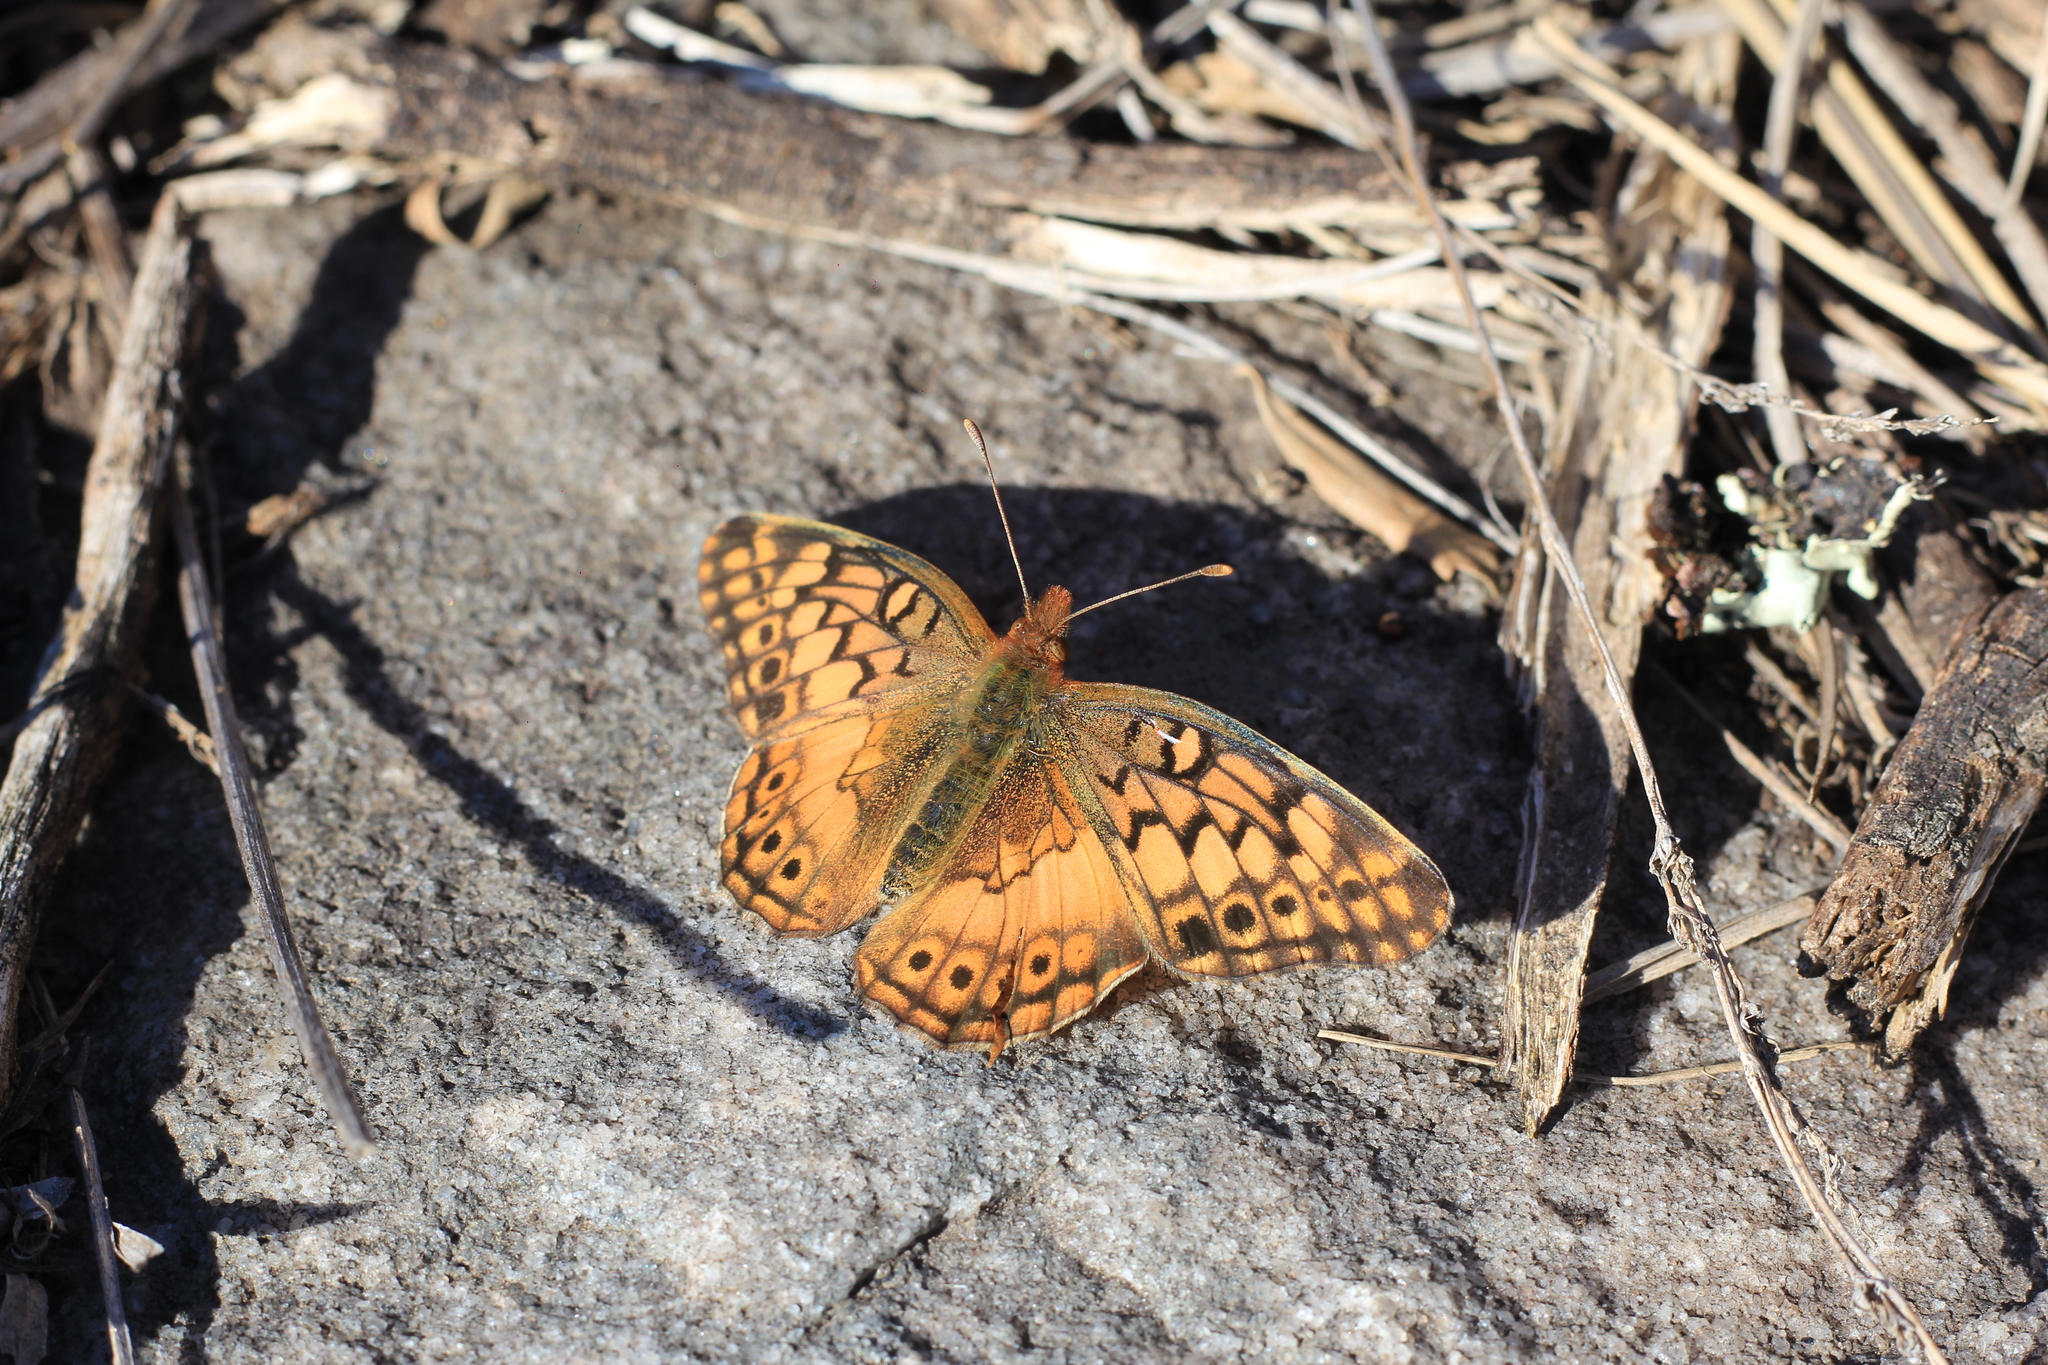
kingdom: Animalia
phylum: Arthropoda
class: Insecta
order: Lepidoptera
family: Nymphalidae
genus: Euptoieta
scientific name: Euptoieta hortensia
